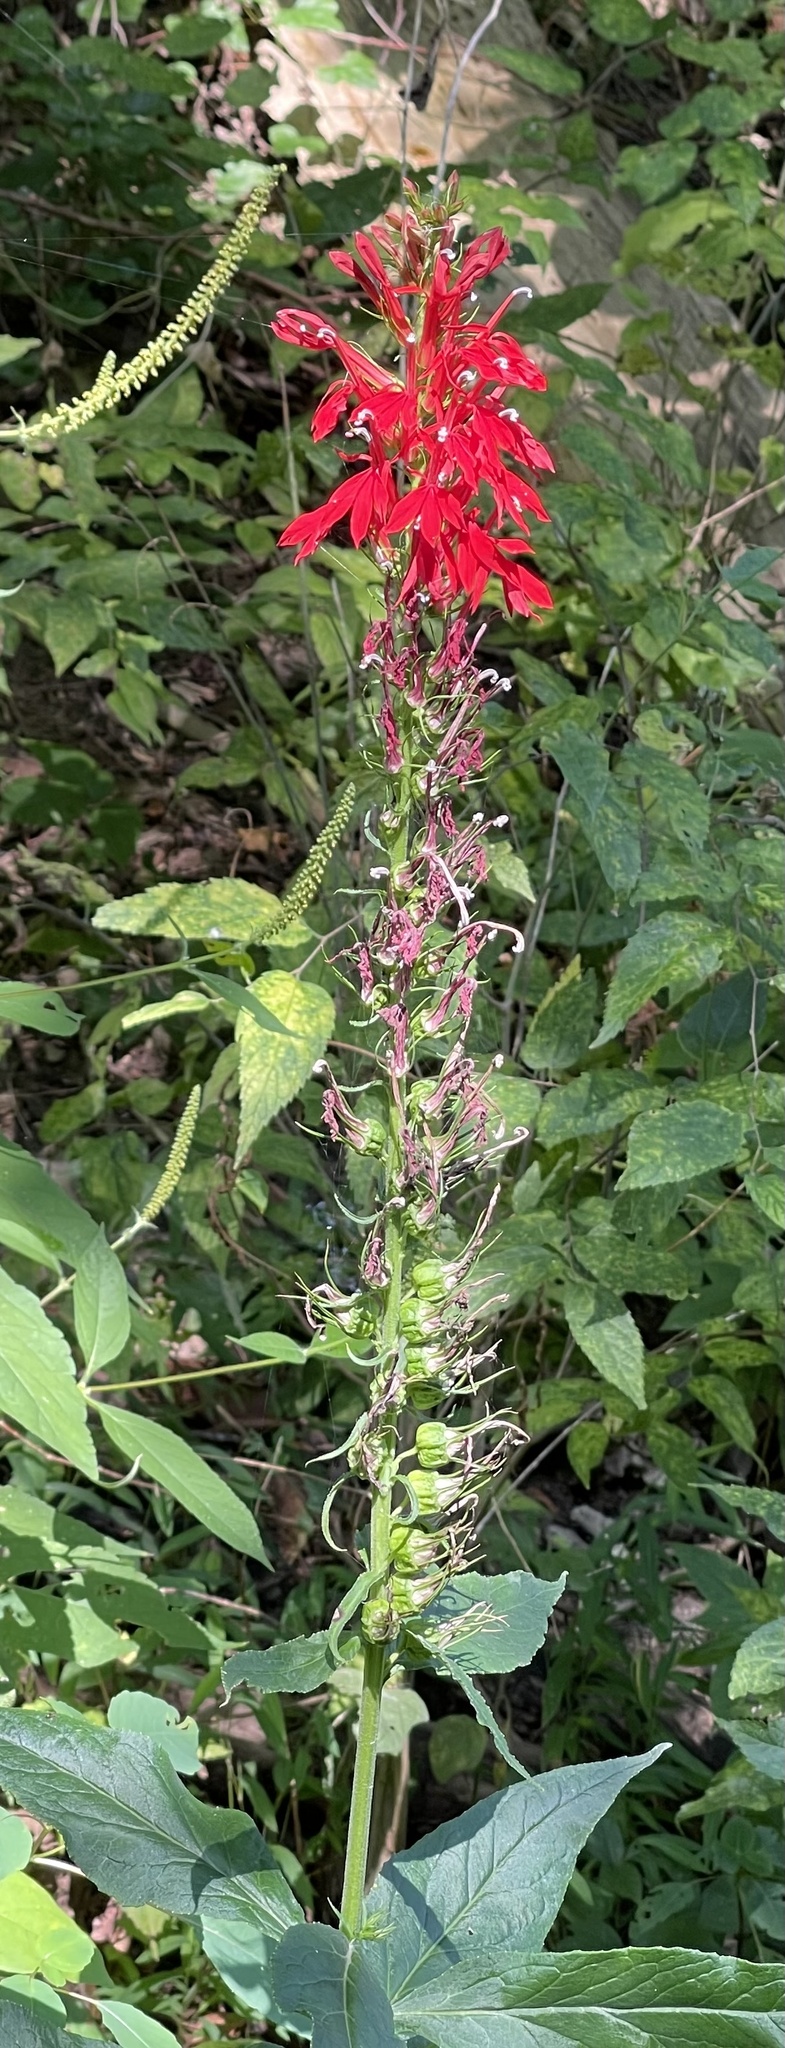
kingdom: Plantae
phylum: Tracheophyta
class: Magnoliopsida
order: Asterales
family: Campanulaceae
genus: Lobelia
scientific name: Lobelia cardinalis
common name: Cardinal flower
